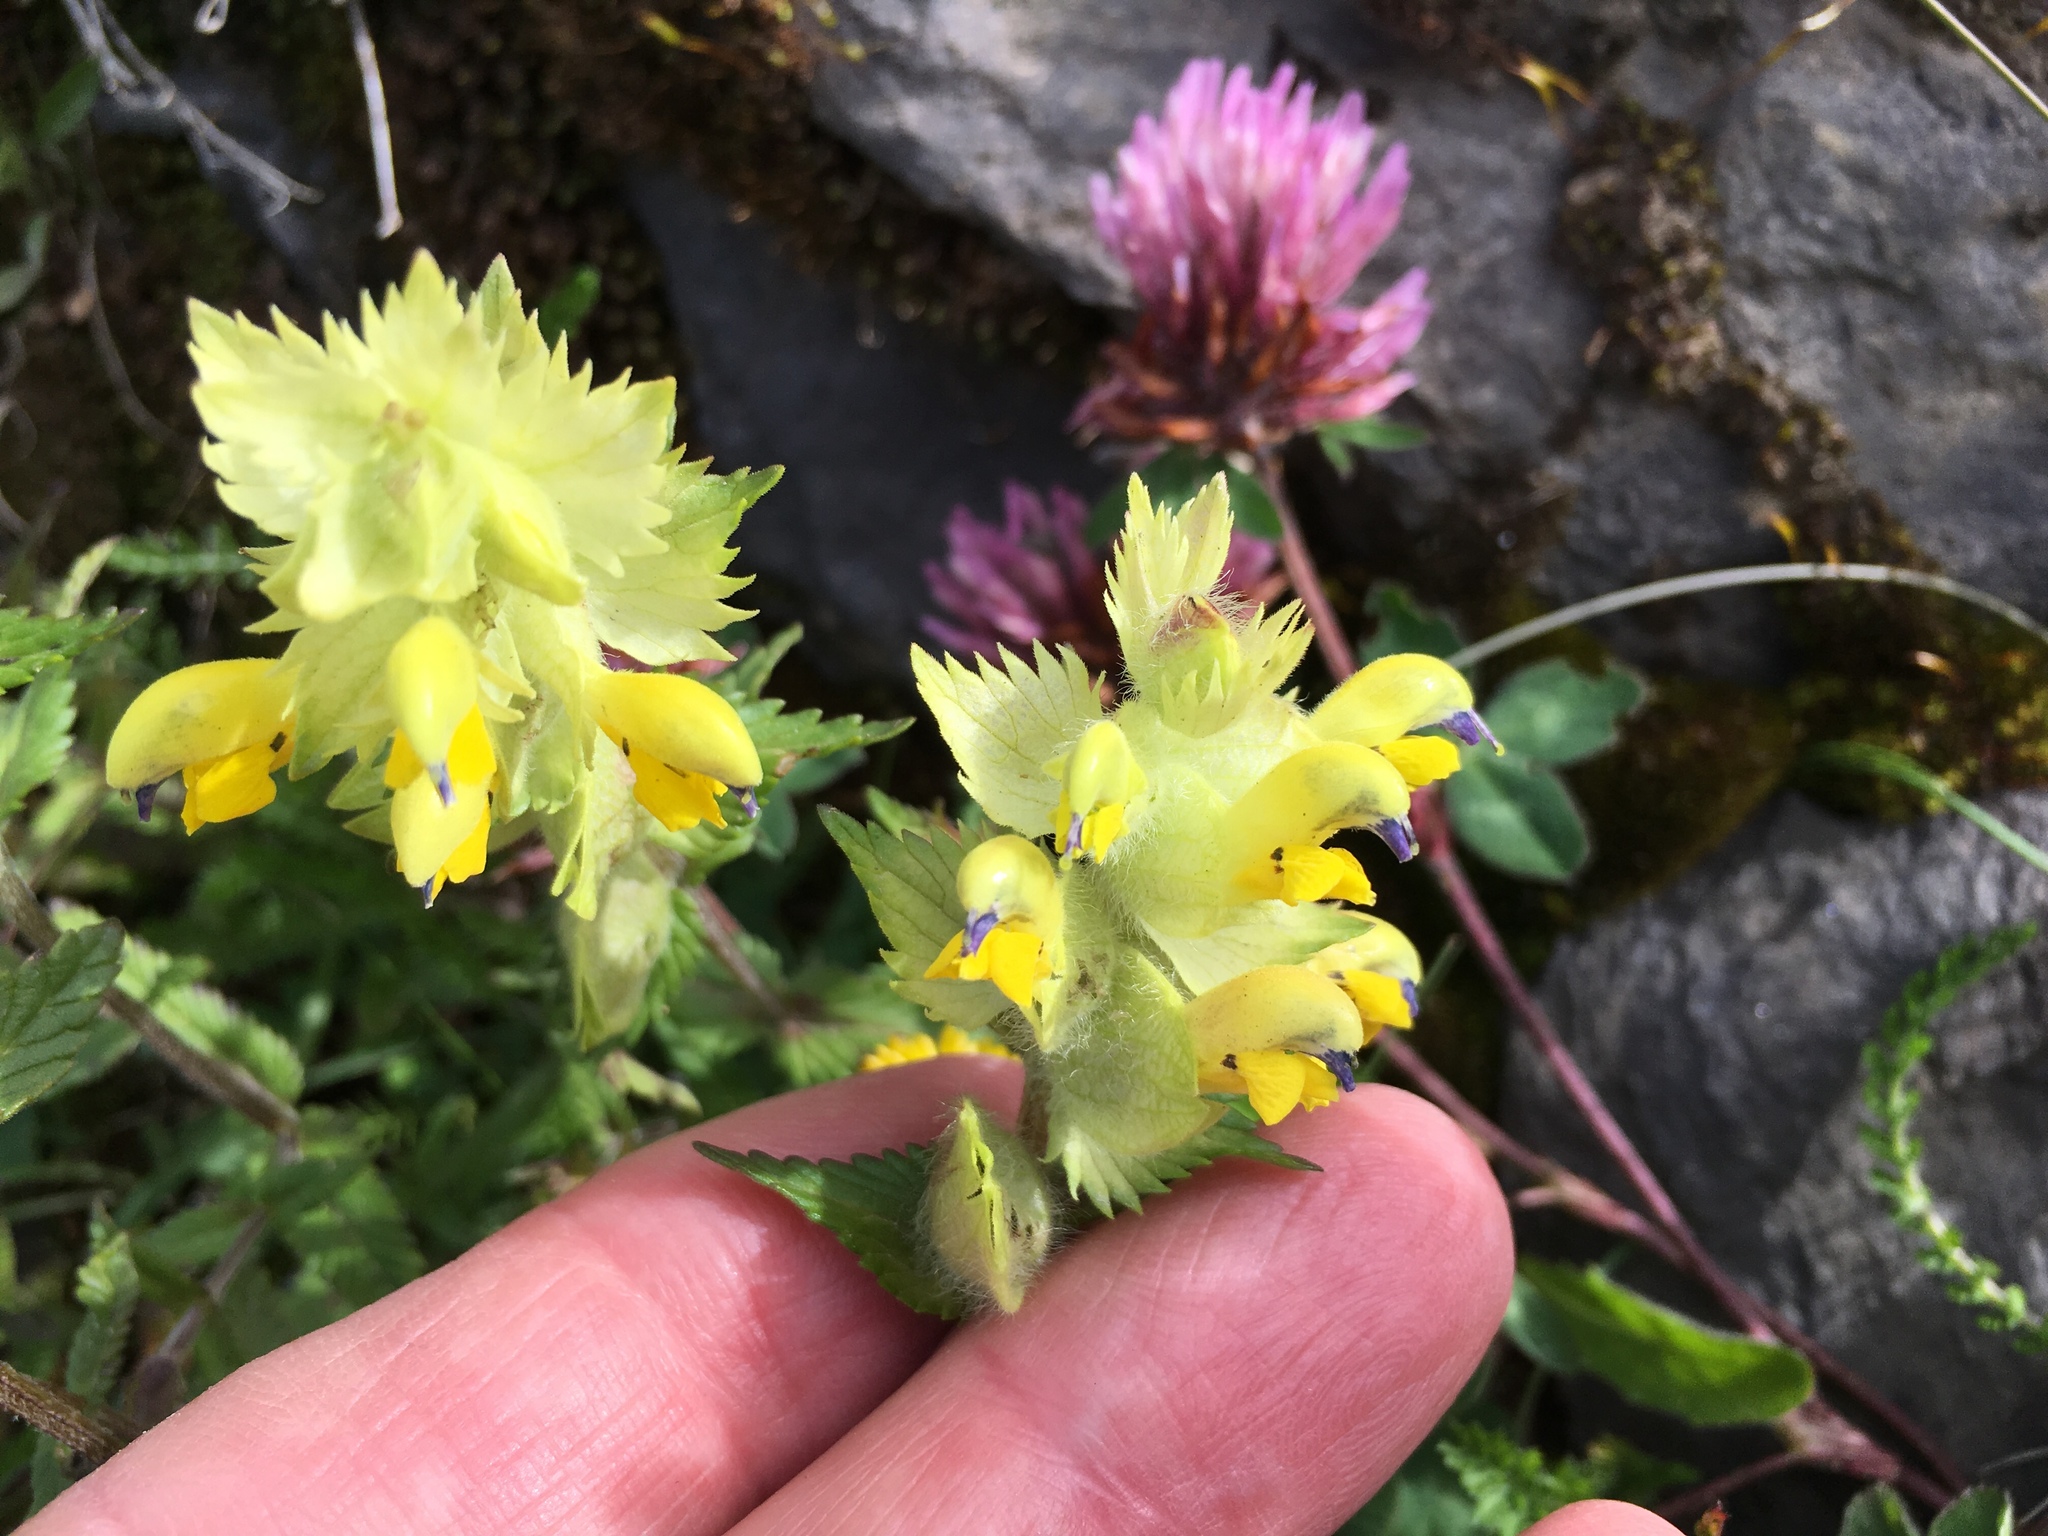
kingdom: Plantae
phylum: Tracheophyta
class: Magnoliopsida
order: Lamiales
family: Orobanchaceae
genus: Rhinanthus
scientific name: Rhinanthus alectorolophus
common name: Greater yellow-rattle
